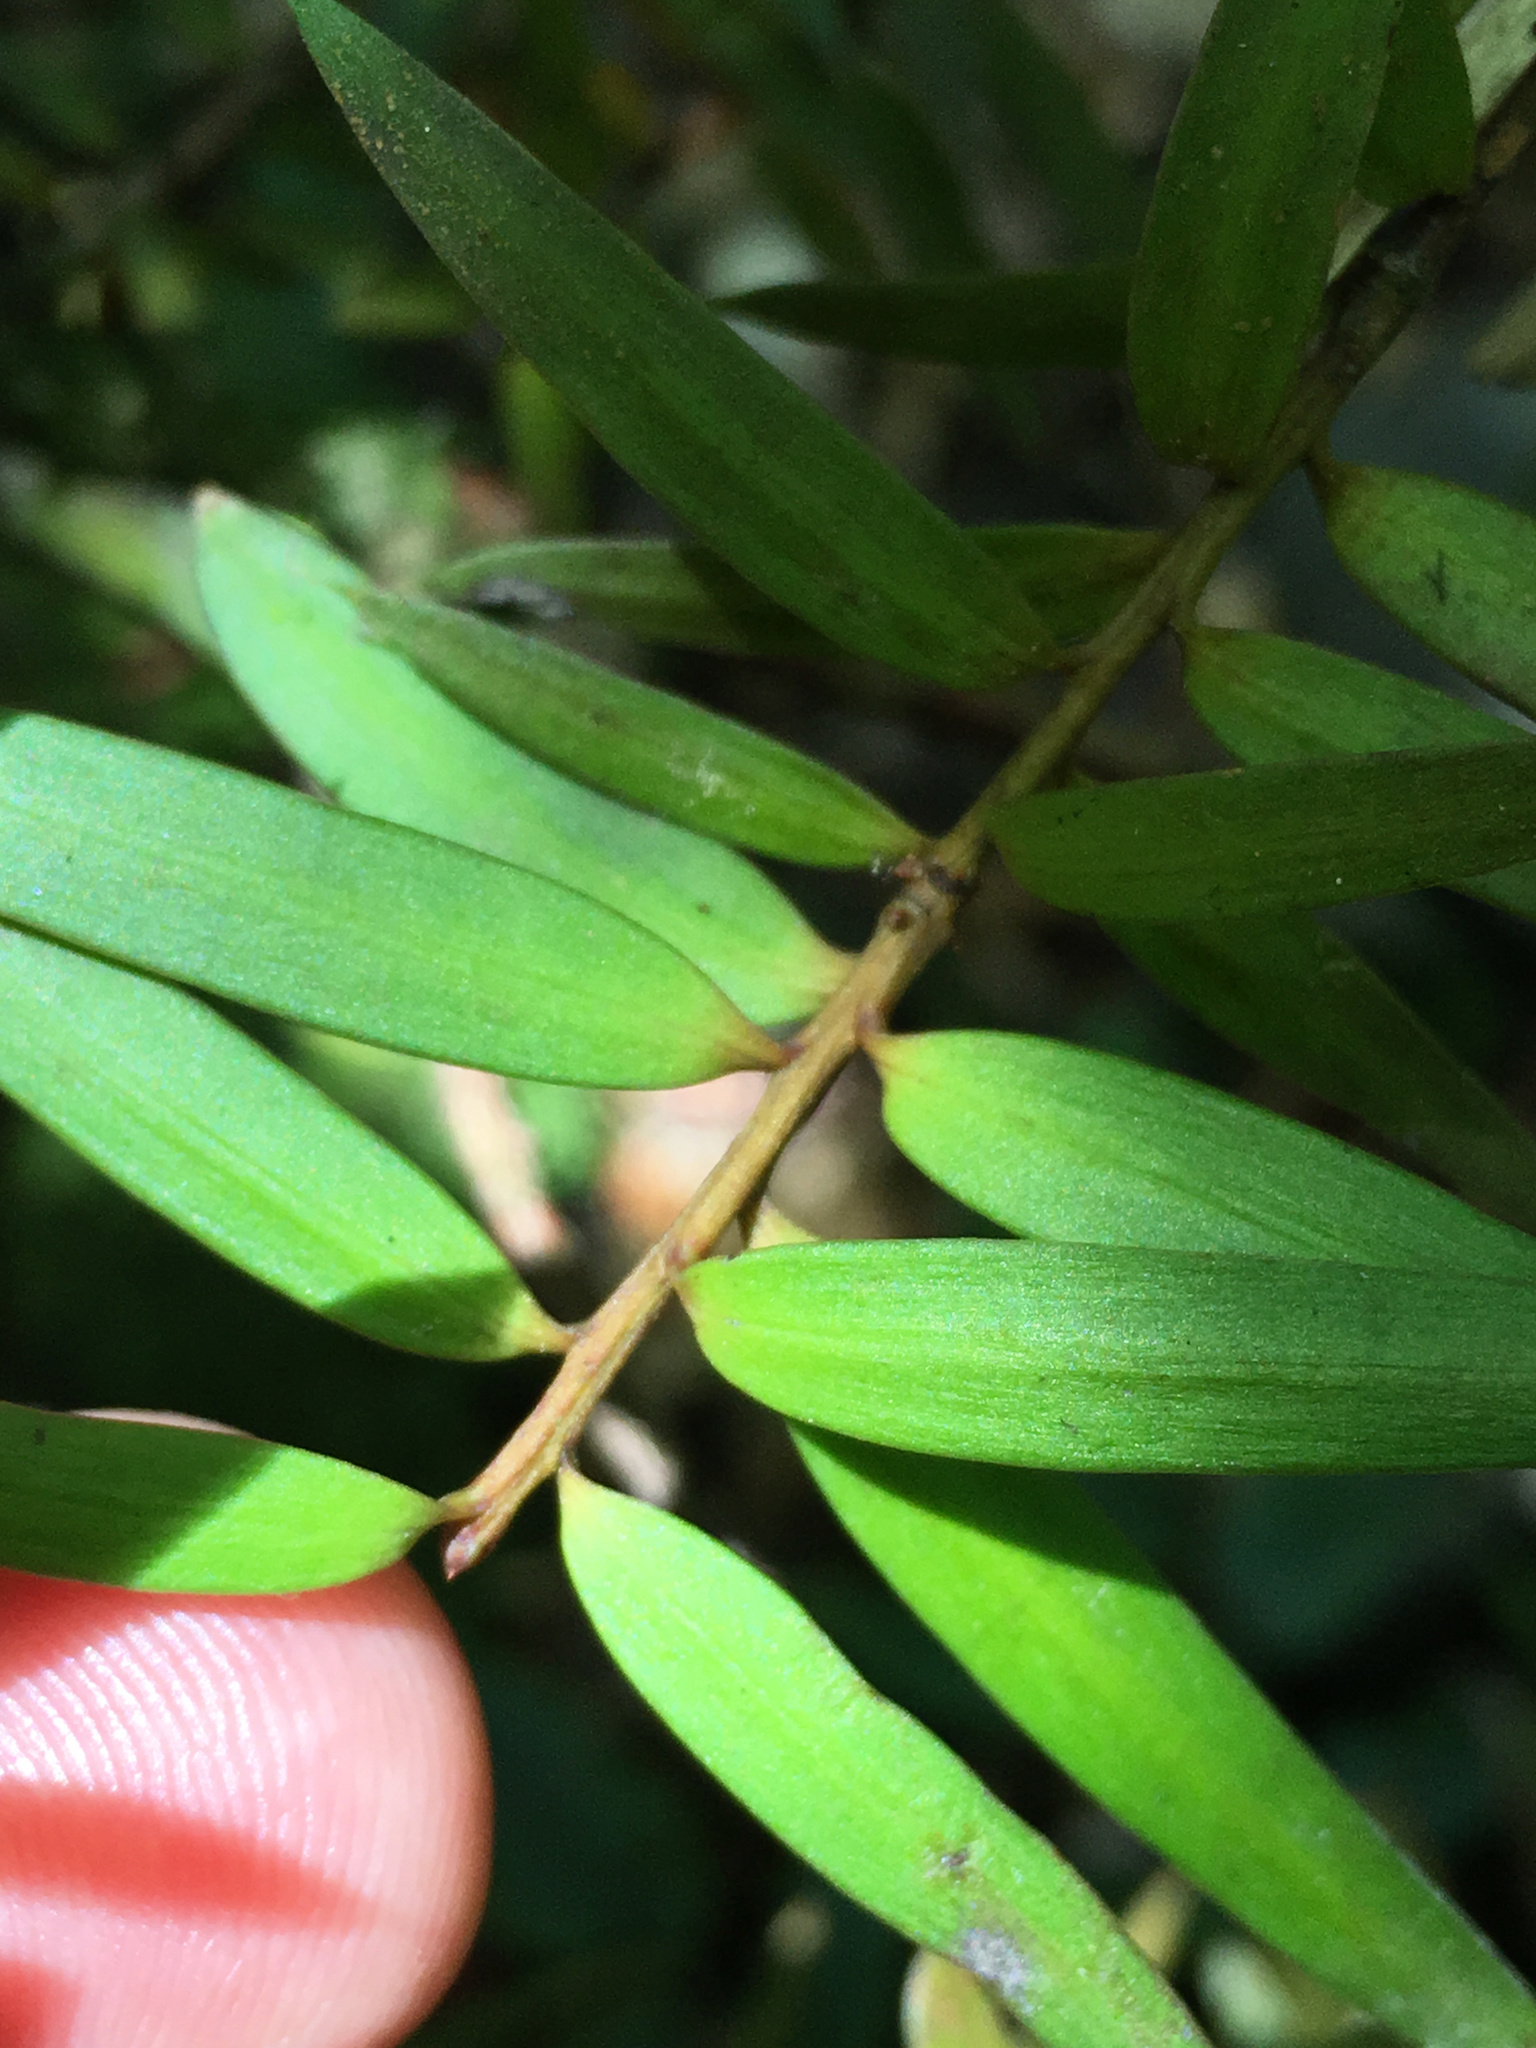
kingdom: Plantae
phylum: Tracheophyta
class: Pinopsida
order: Pinales
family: Podocarpaceae
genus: Podocarpus
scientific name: Podocarpus totara
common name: Totara
